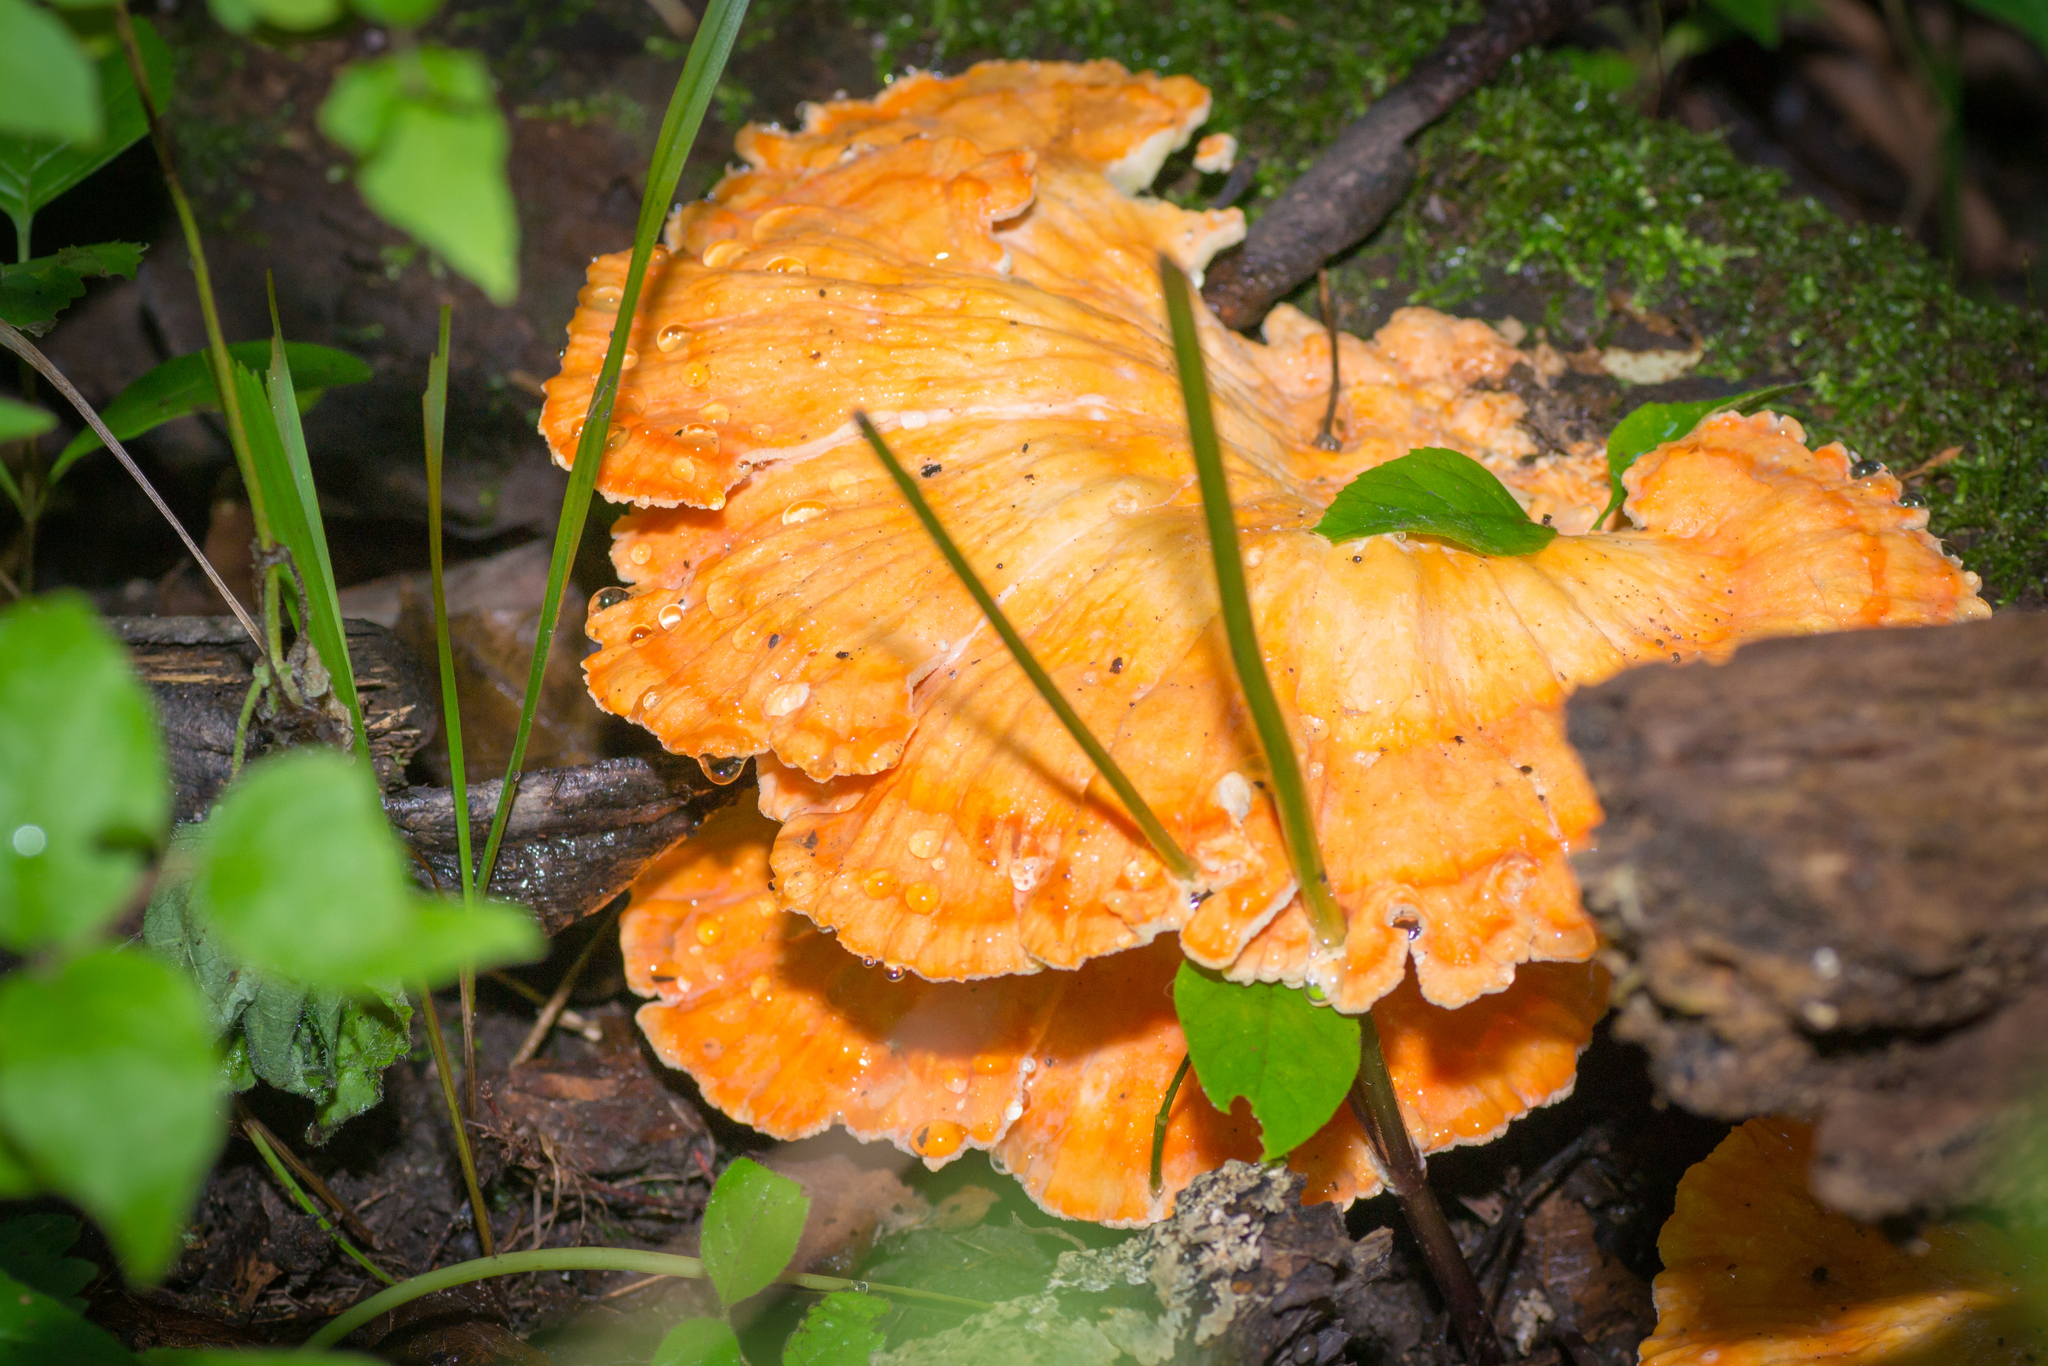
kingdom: Fungi
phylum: Basidiomycota
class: Agaricomycetes
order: Polyporales
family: Laetiporaceae
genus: Laetiporus
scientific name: Laetiporus sulphureus
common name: Chicken of the woods
